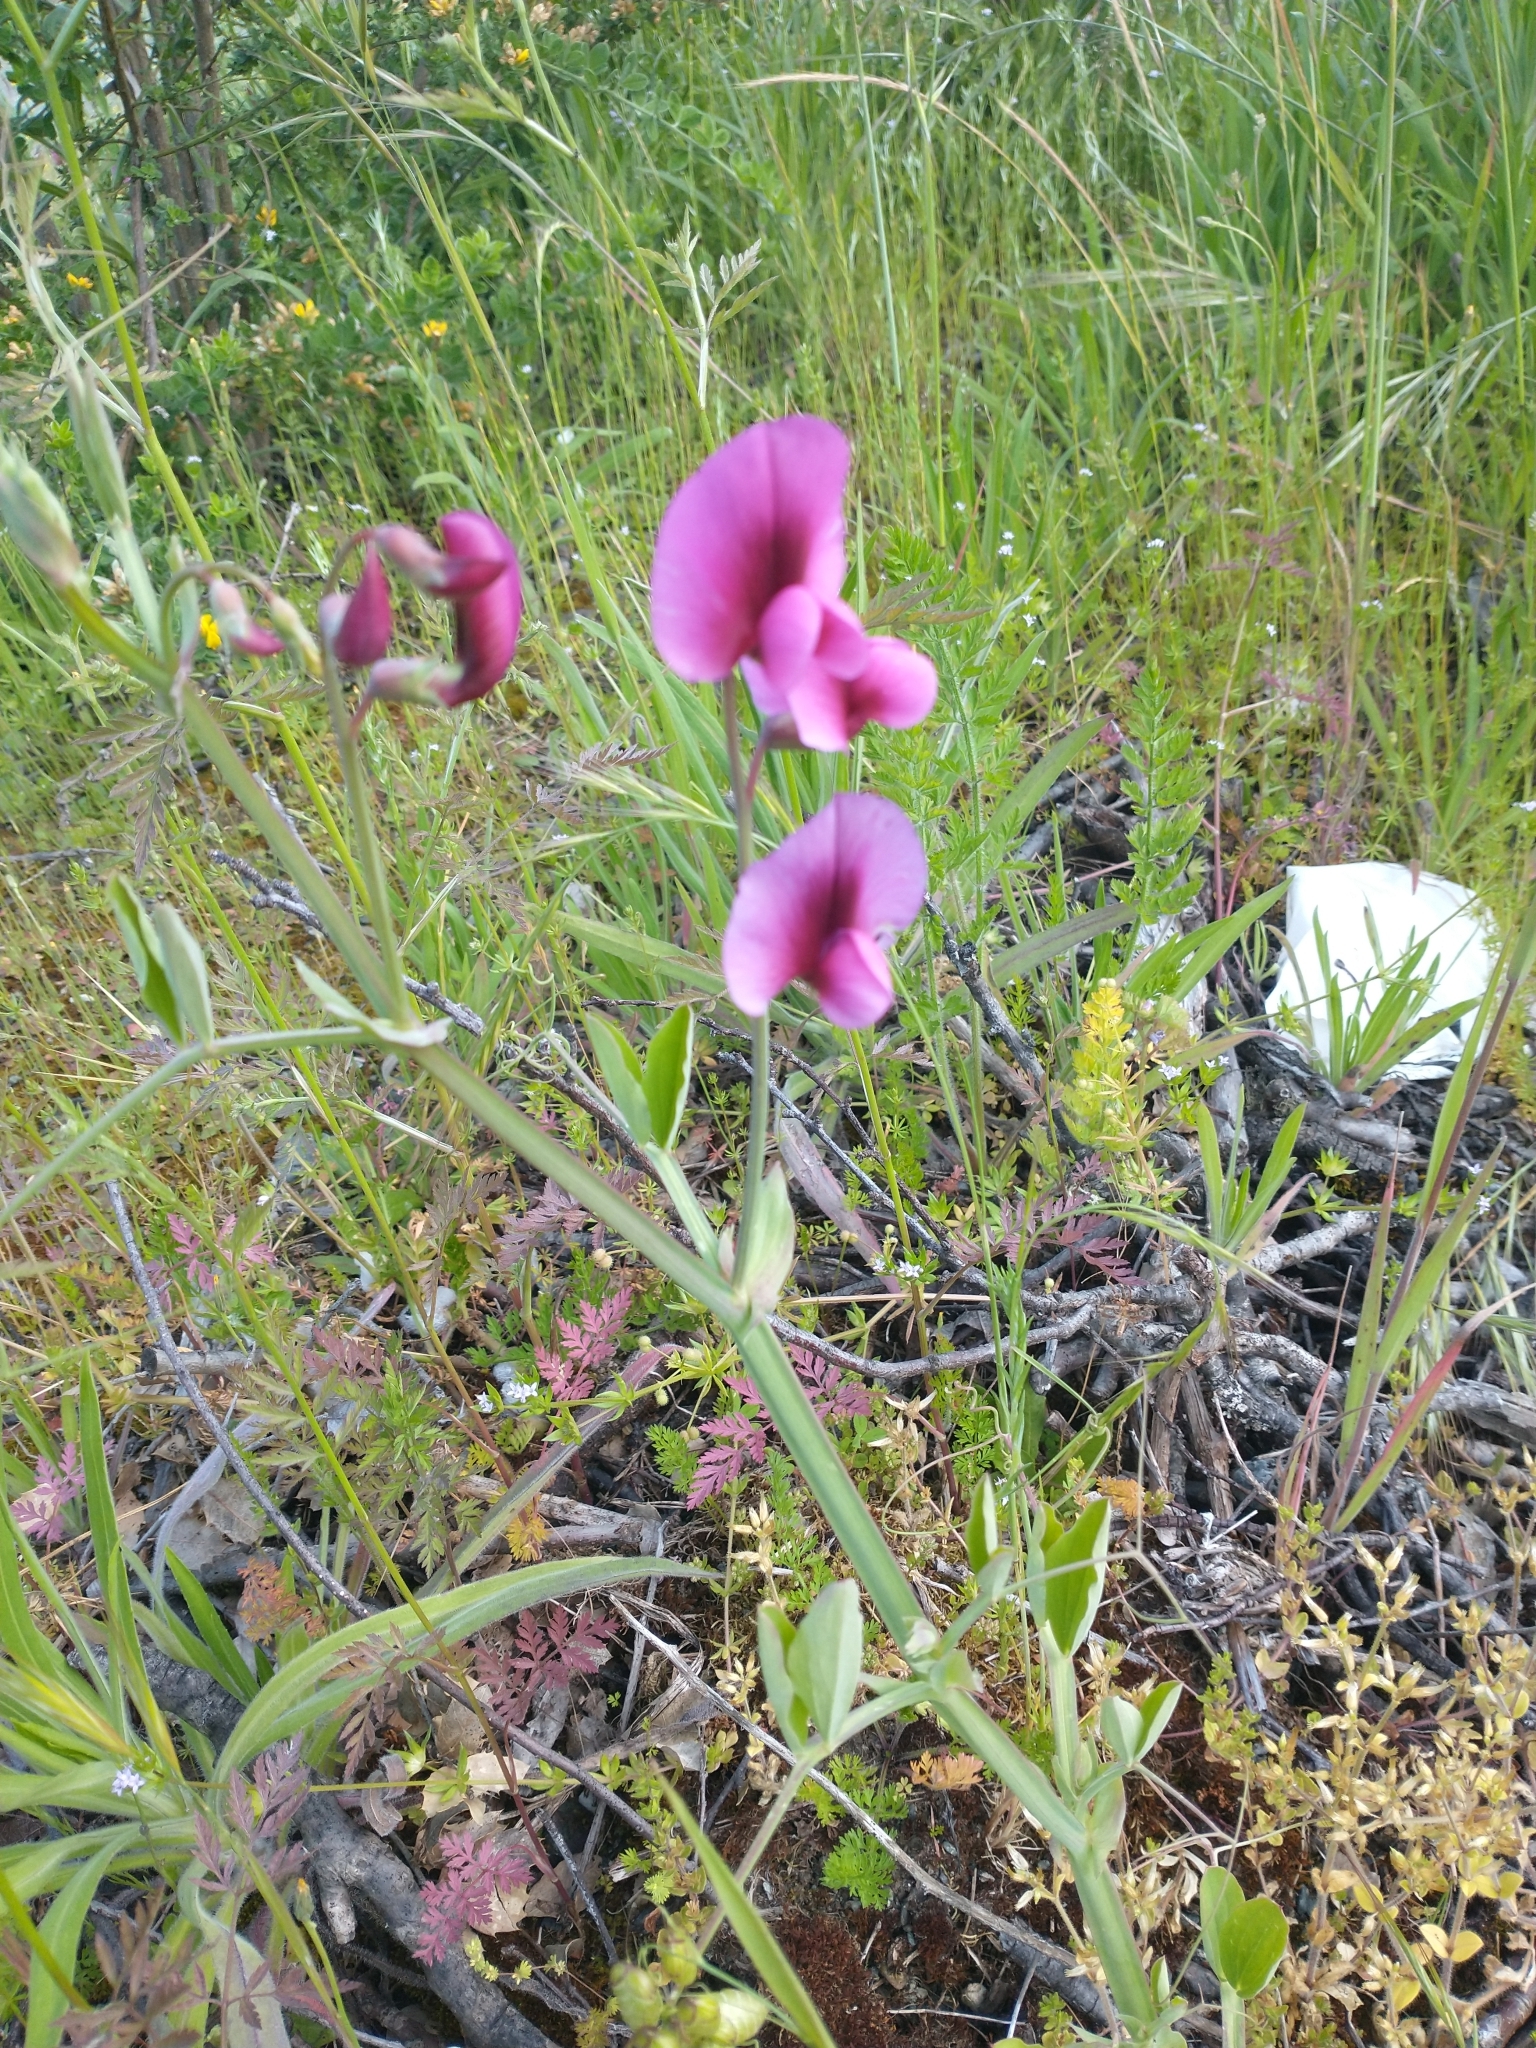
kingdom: Plantae
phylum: Tracheophyta
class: Magnoliopsida
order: Fabales
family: Fabaceae
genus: Lathyrus
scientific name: Lathyrus tingitanus
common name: Tangier pea
